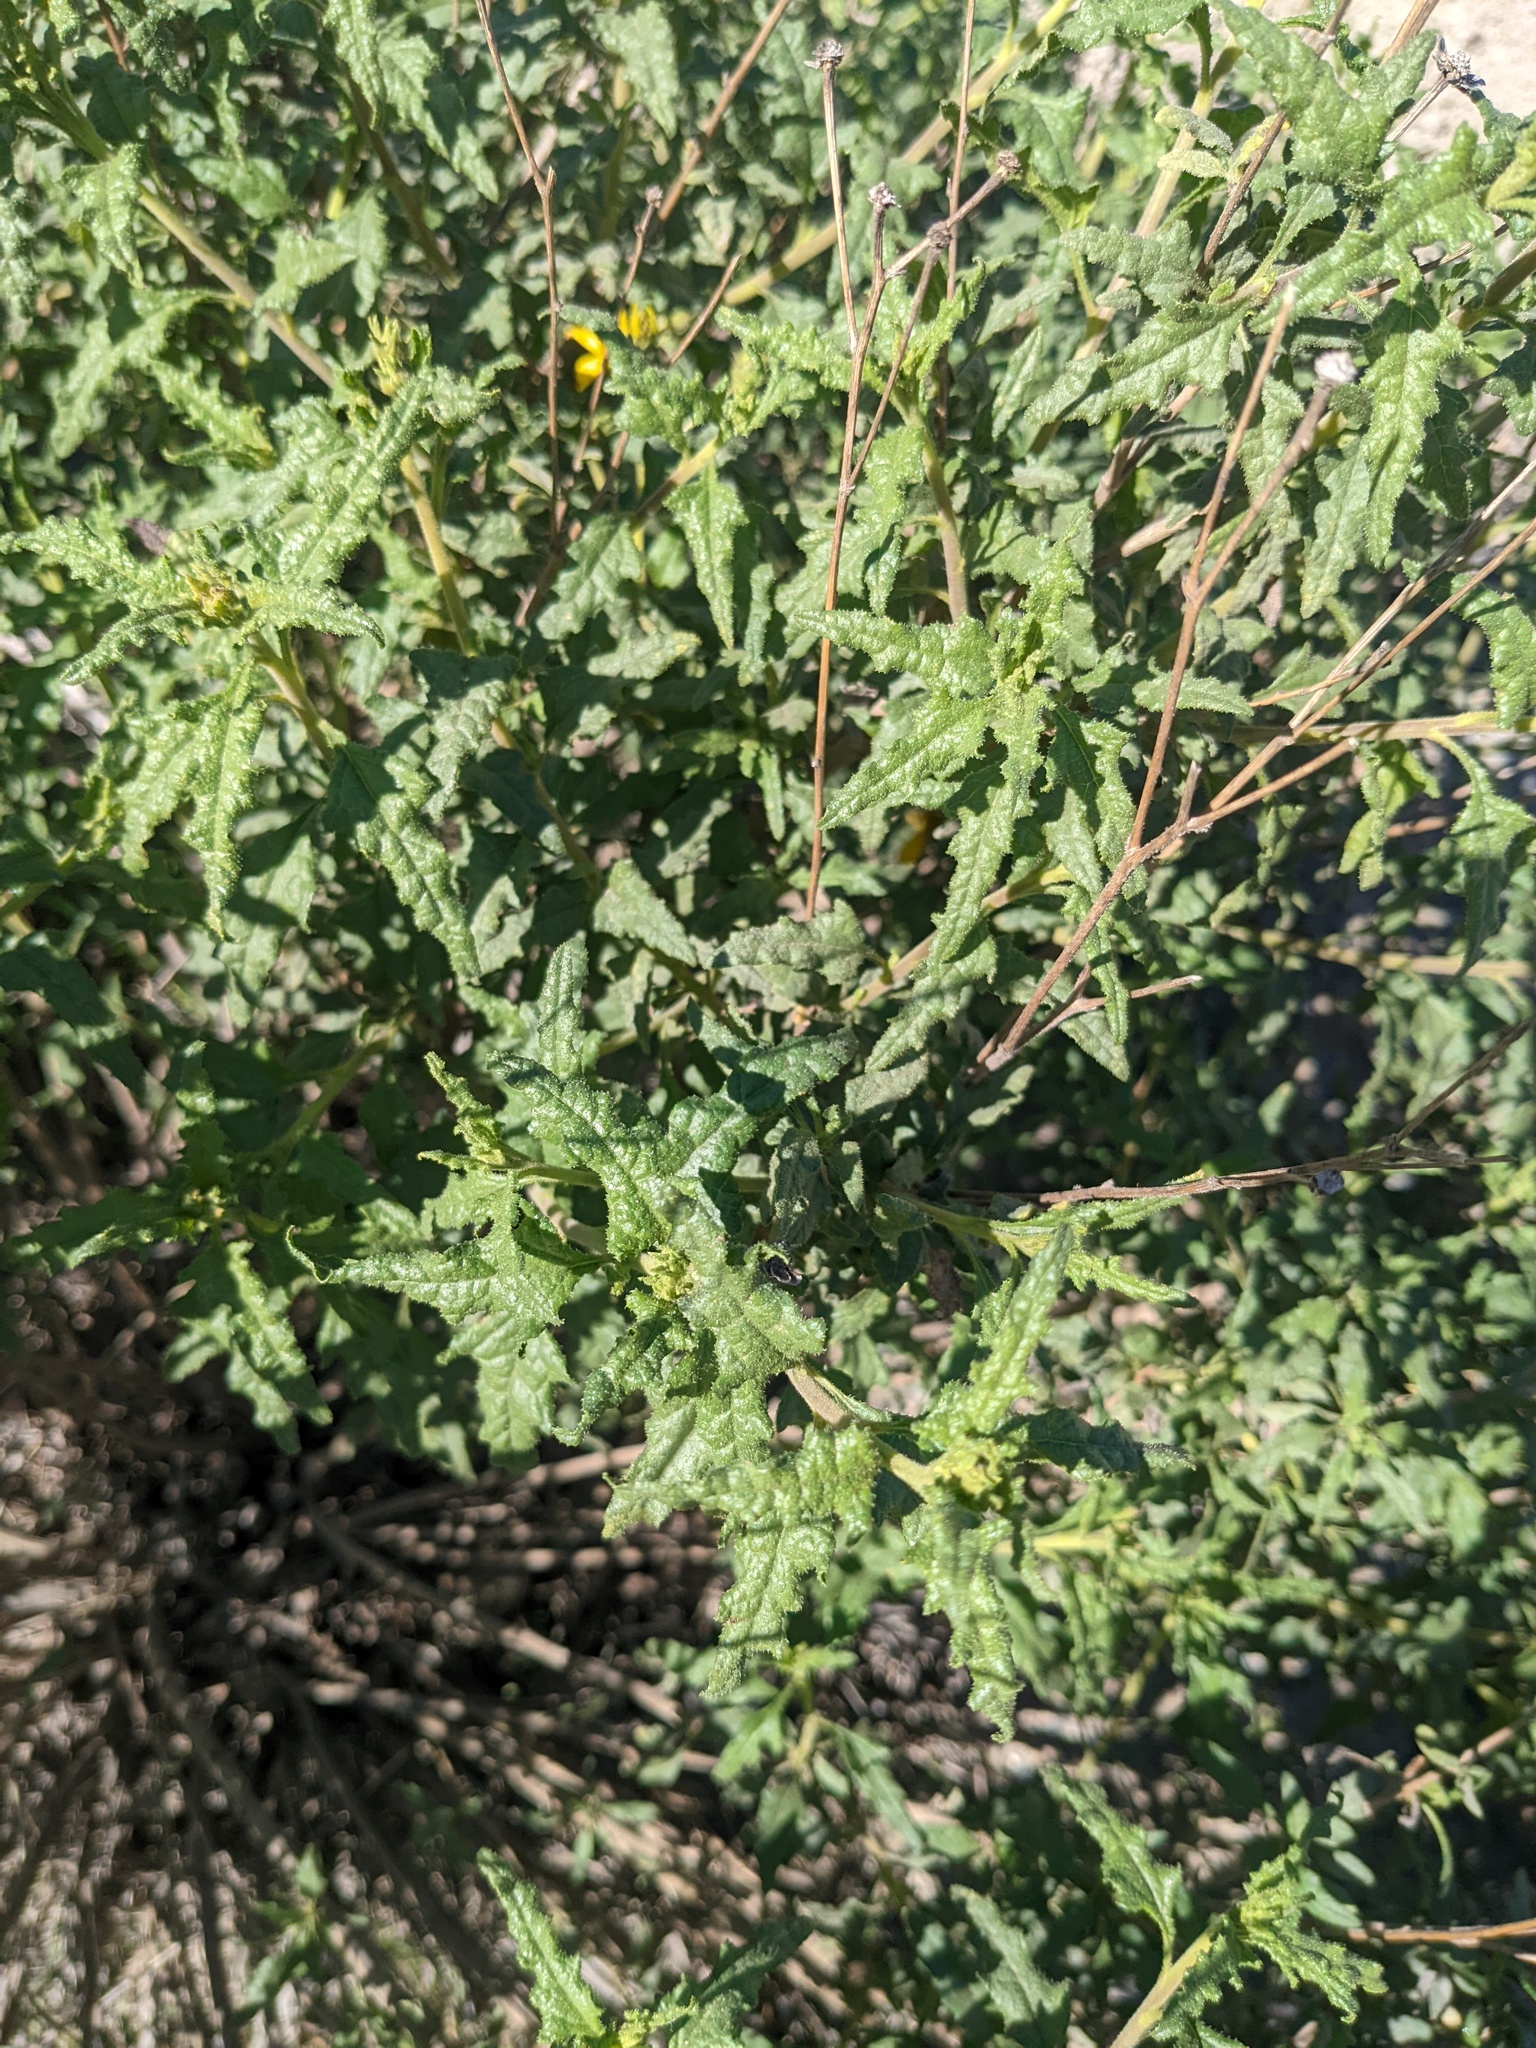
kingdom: Plantae
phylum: Tracheophyta
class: Magnoliopsida
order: Asterales
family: Asteraceae
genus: Bahiopsis
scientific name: Bahiopsis laciniata
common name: San diego county viguiera
